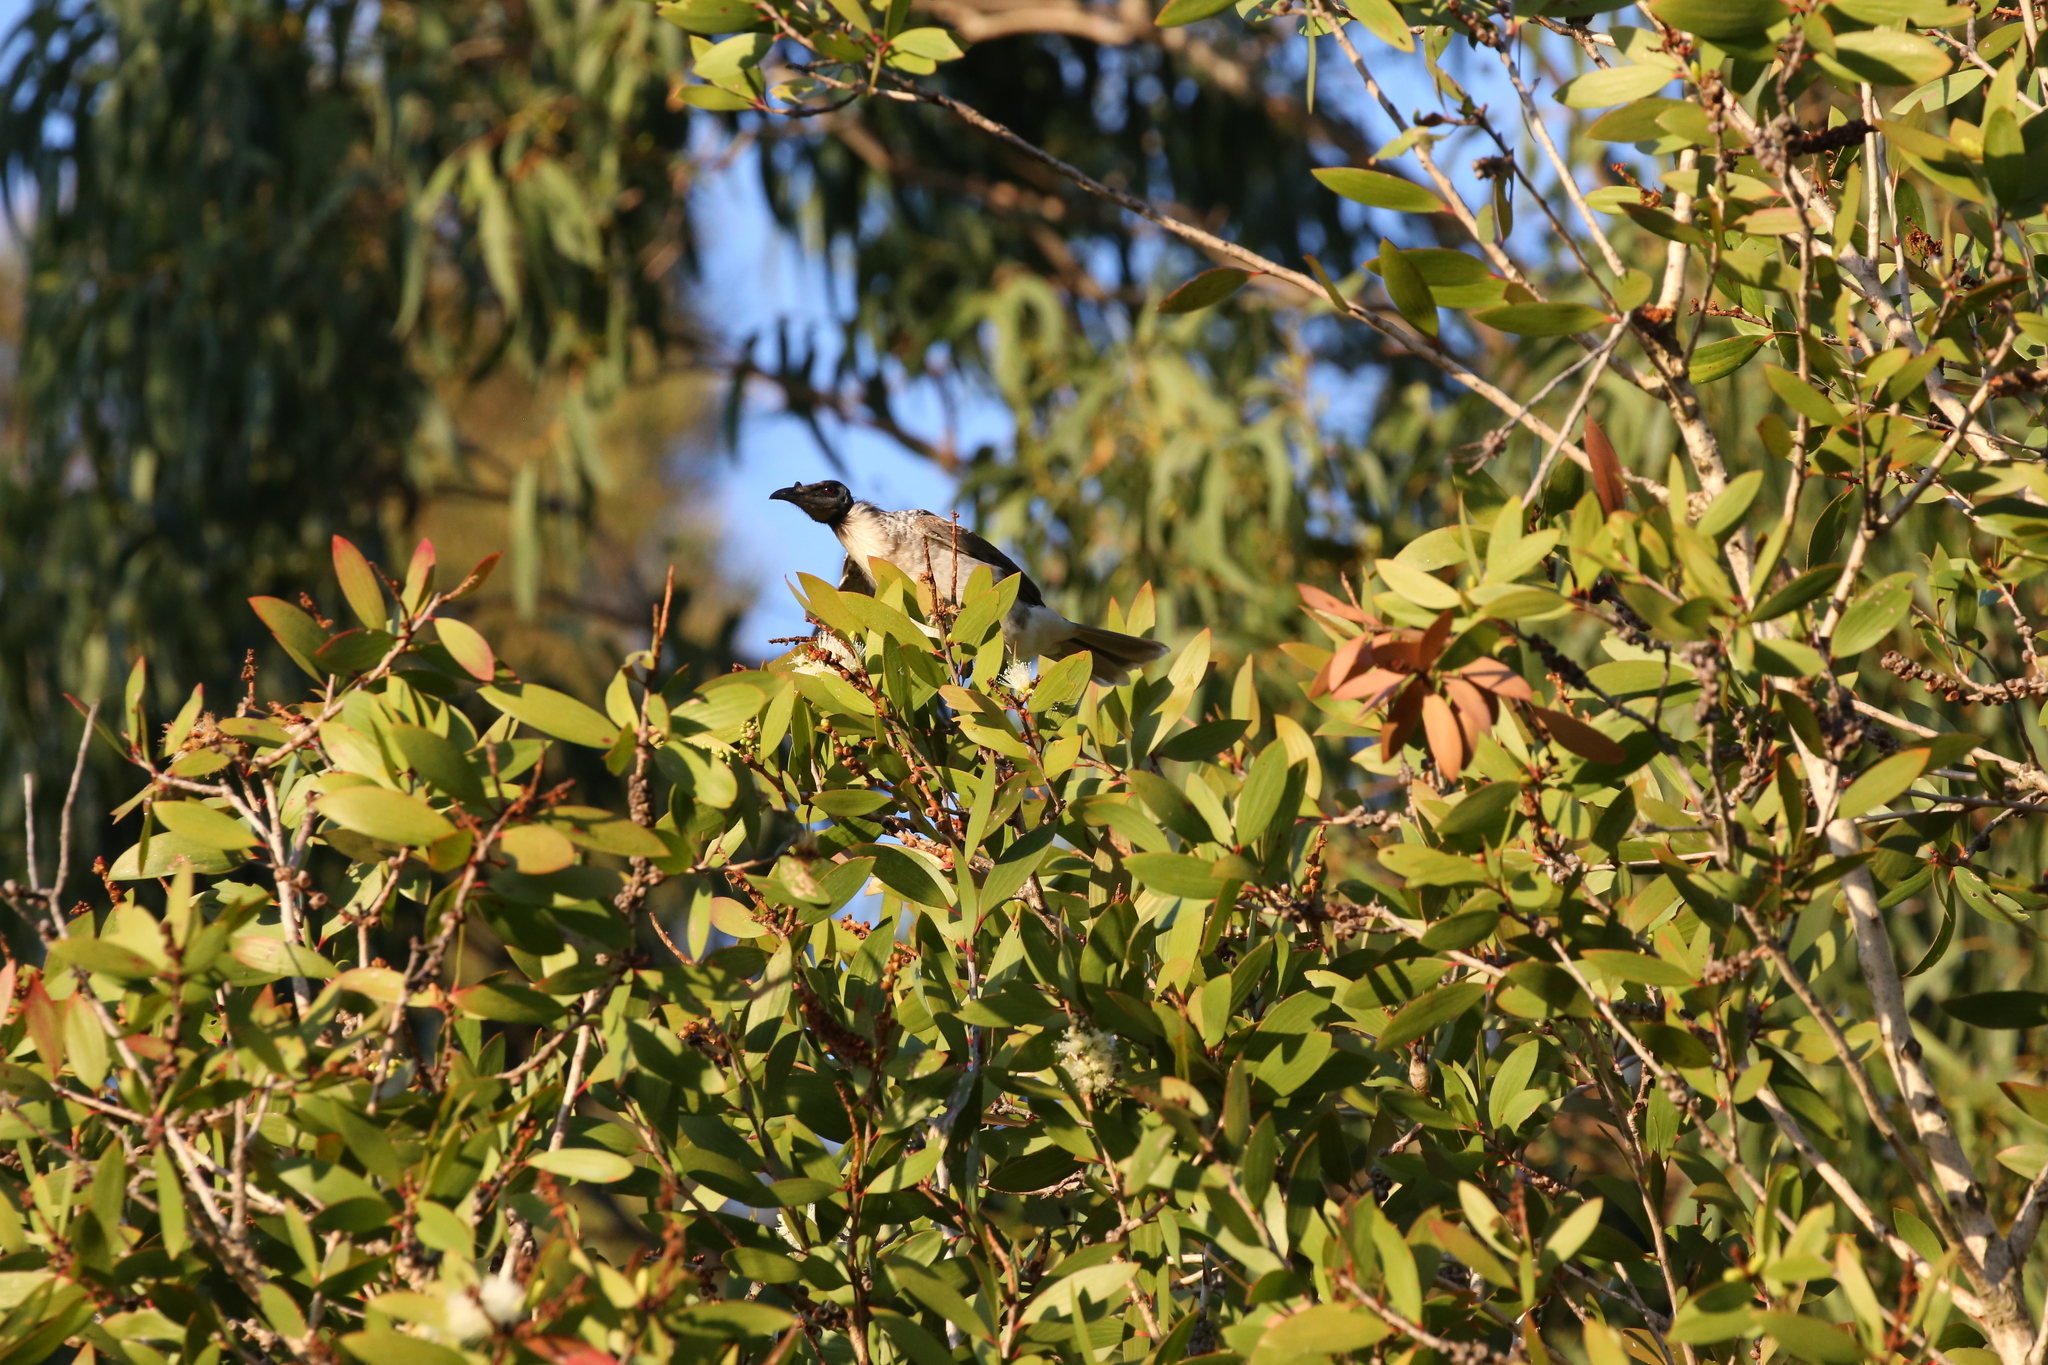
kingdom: Animalia
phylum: Chordata
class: Aves
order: Passeriformes
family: Meliphagidae
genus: Philemon
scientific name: Philemon corniculatus
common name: Noisy friarbird
